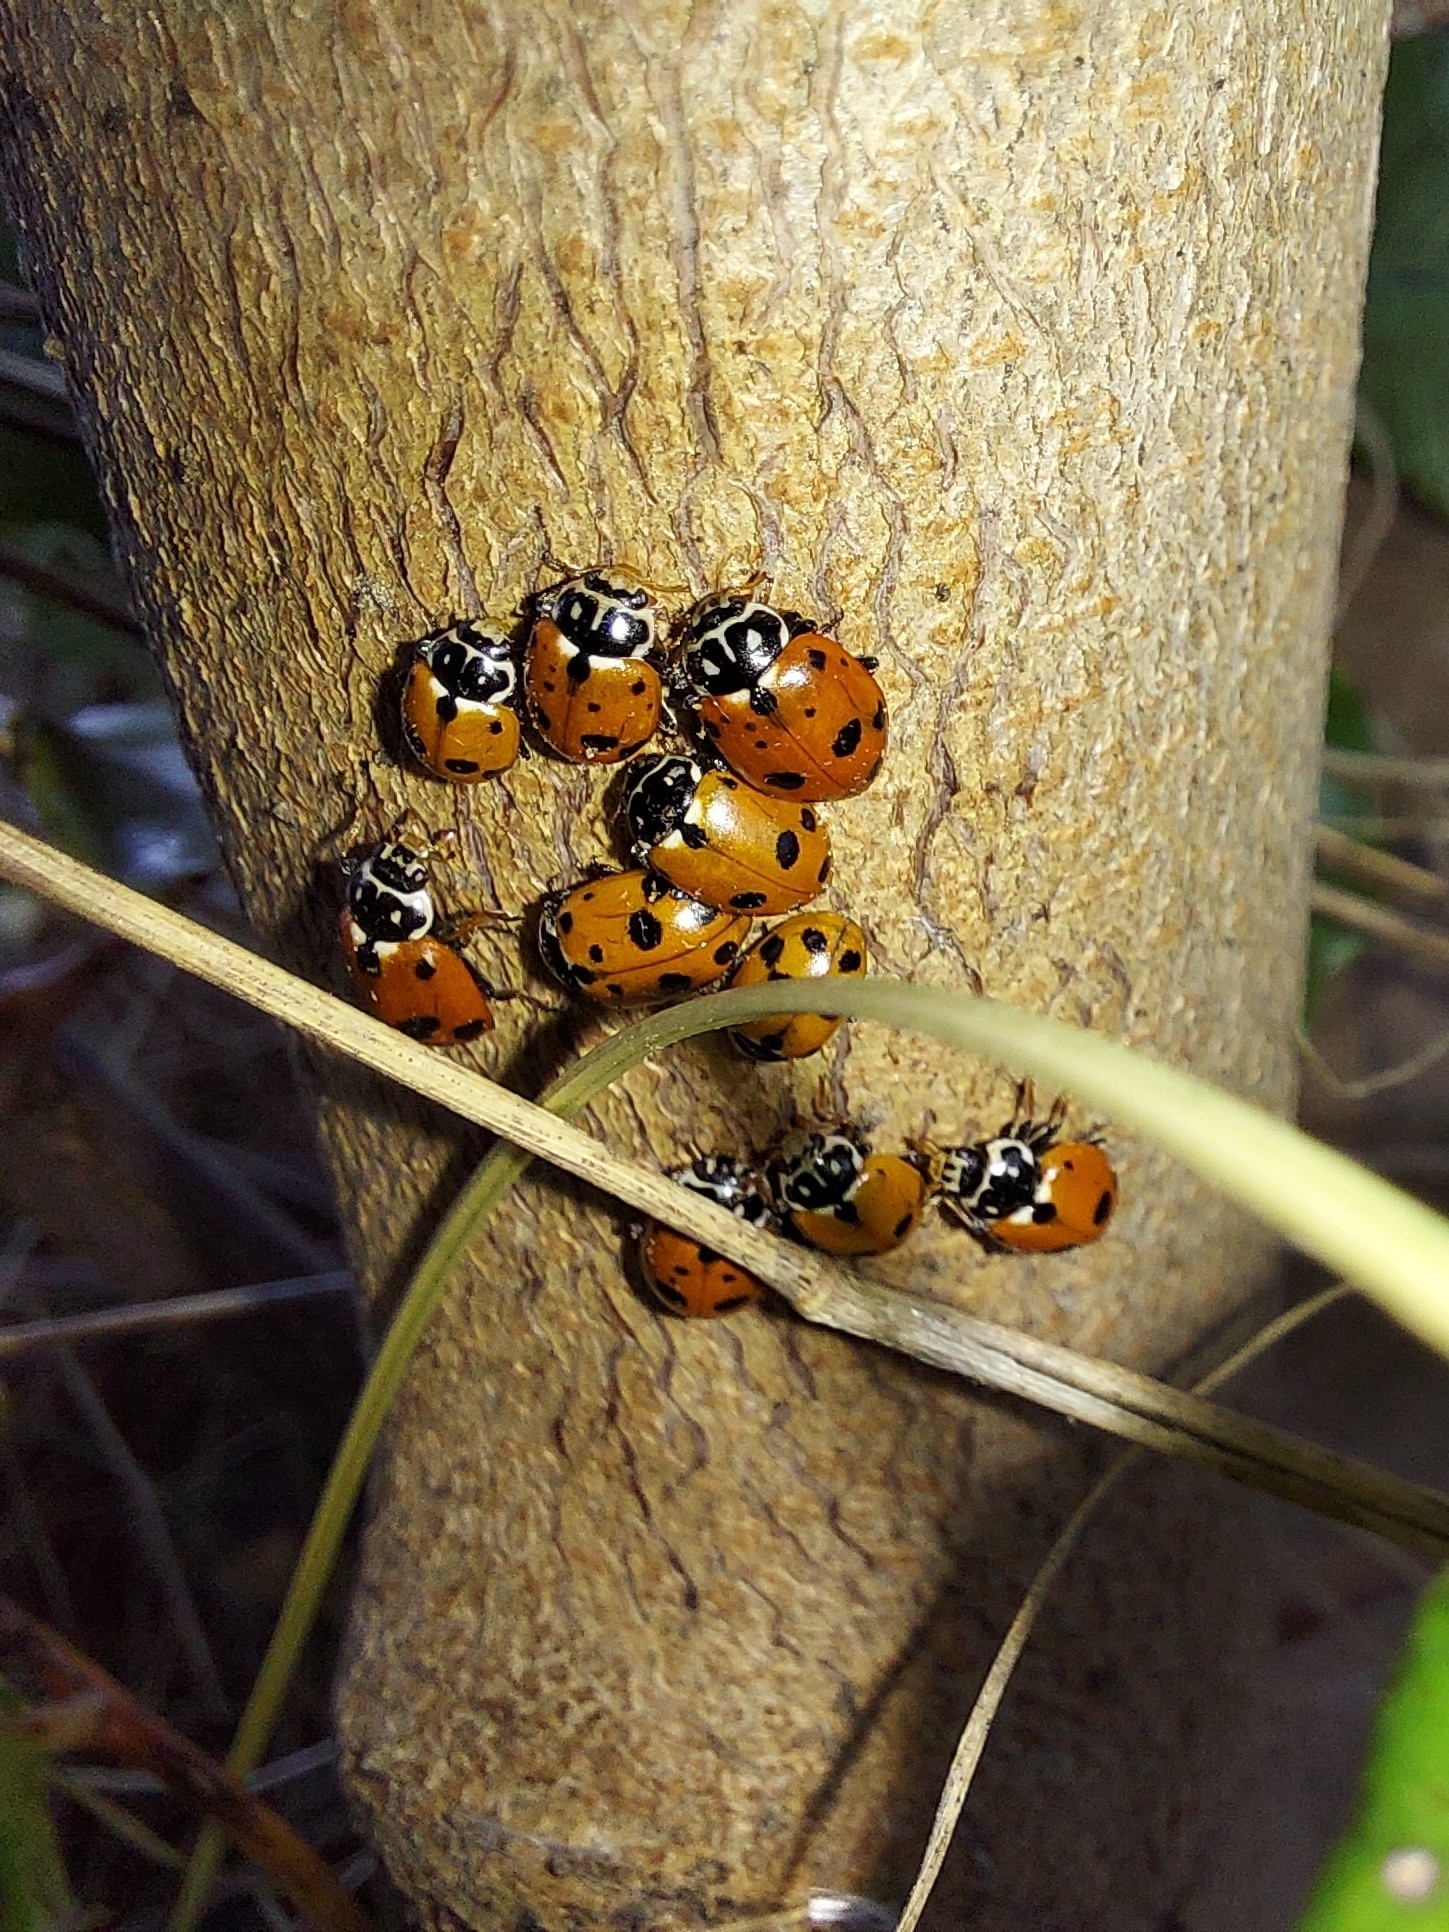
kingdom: Animalia
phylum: Arthropoda
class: Insecta
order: Coleoptera
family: Coccinellidae
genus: Hippodamia
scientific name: Hippodamia variegata
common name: Ladybird beetle
